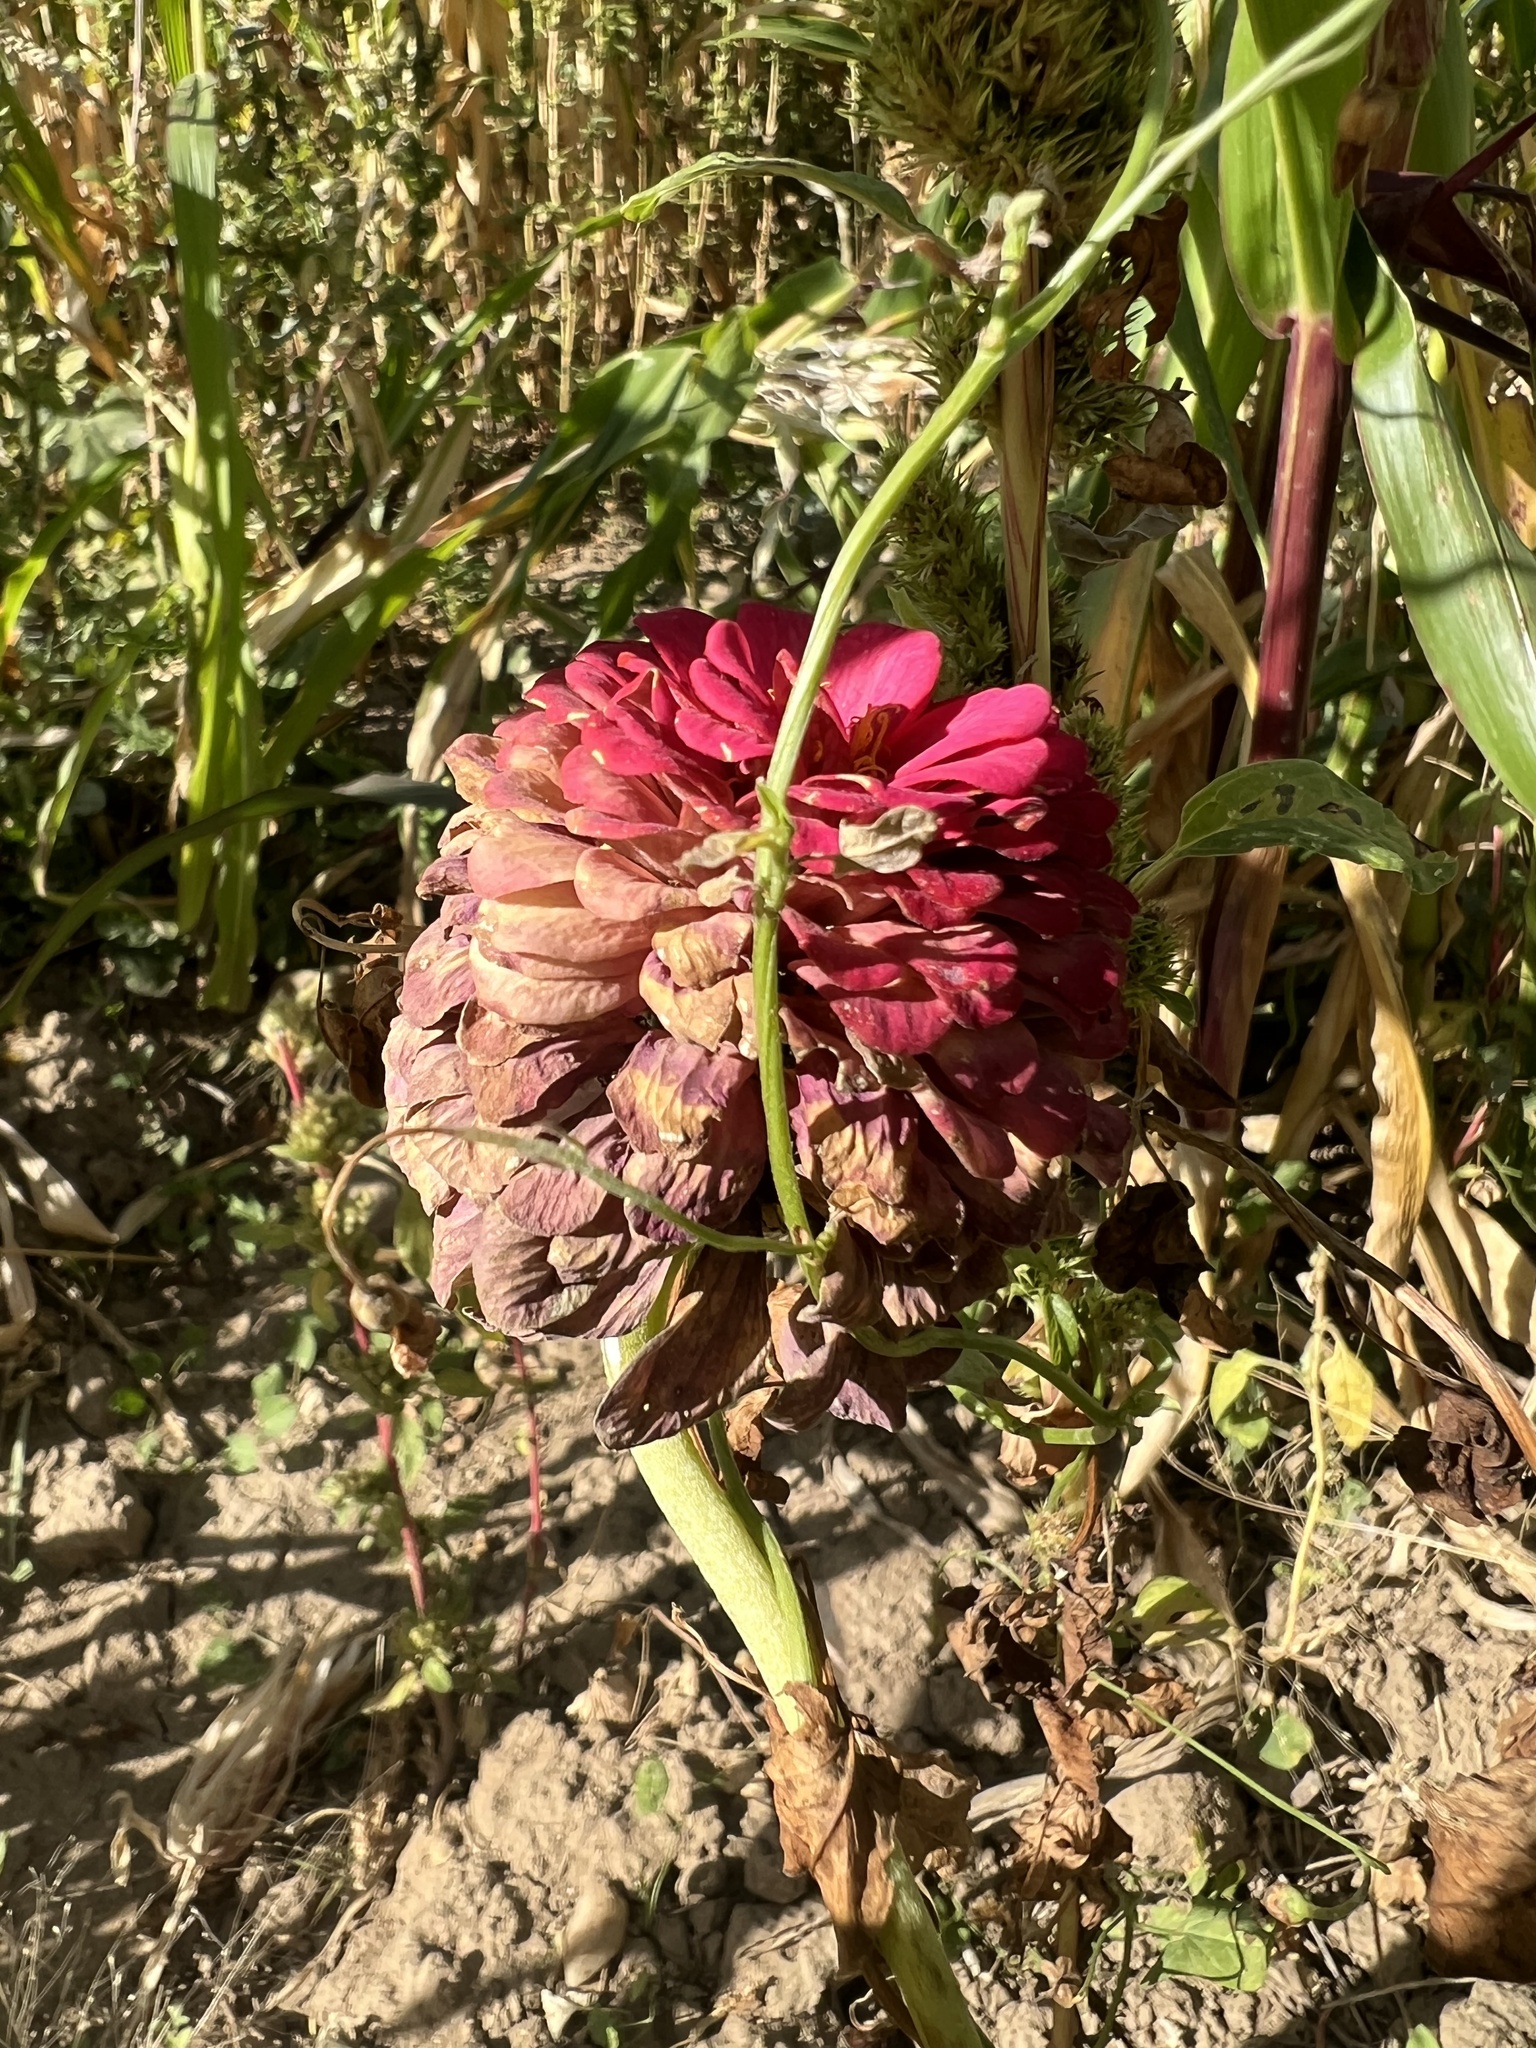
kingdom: Plantae
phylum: Tracheophyta
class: Magnoliopsida
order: Asterales
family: Asteraceae
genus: Zinnia
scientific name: Zinnia elegans
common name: Youth-and-age
